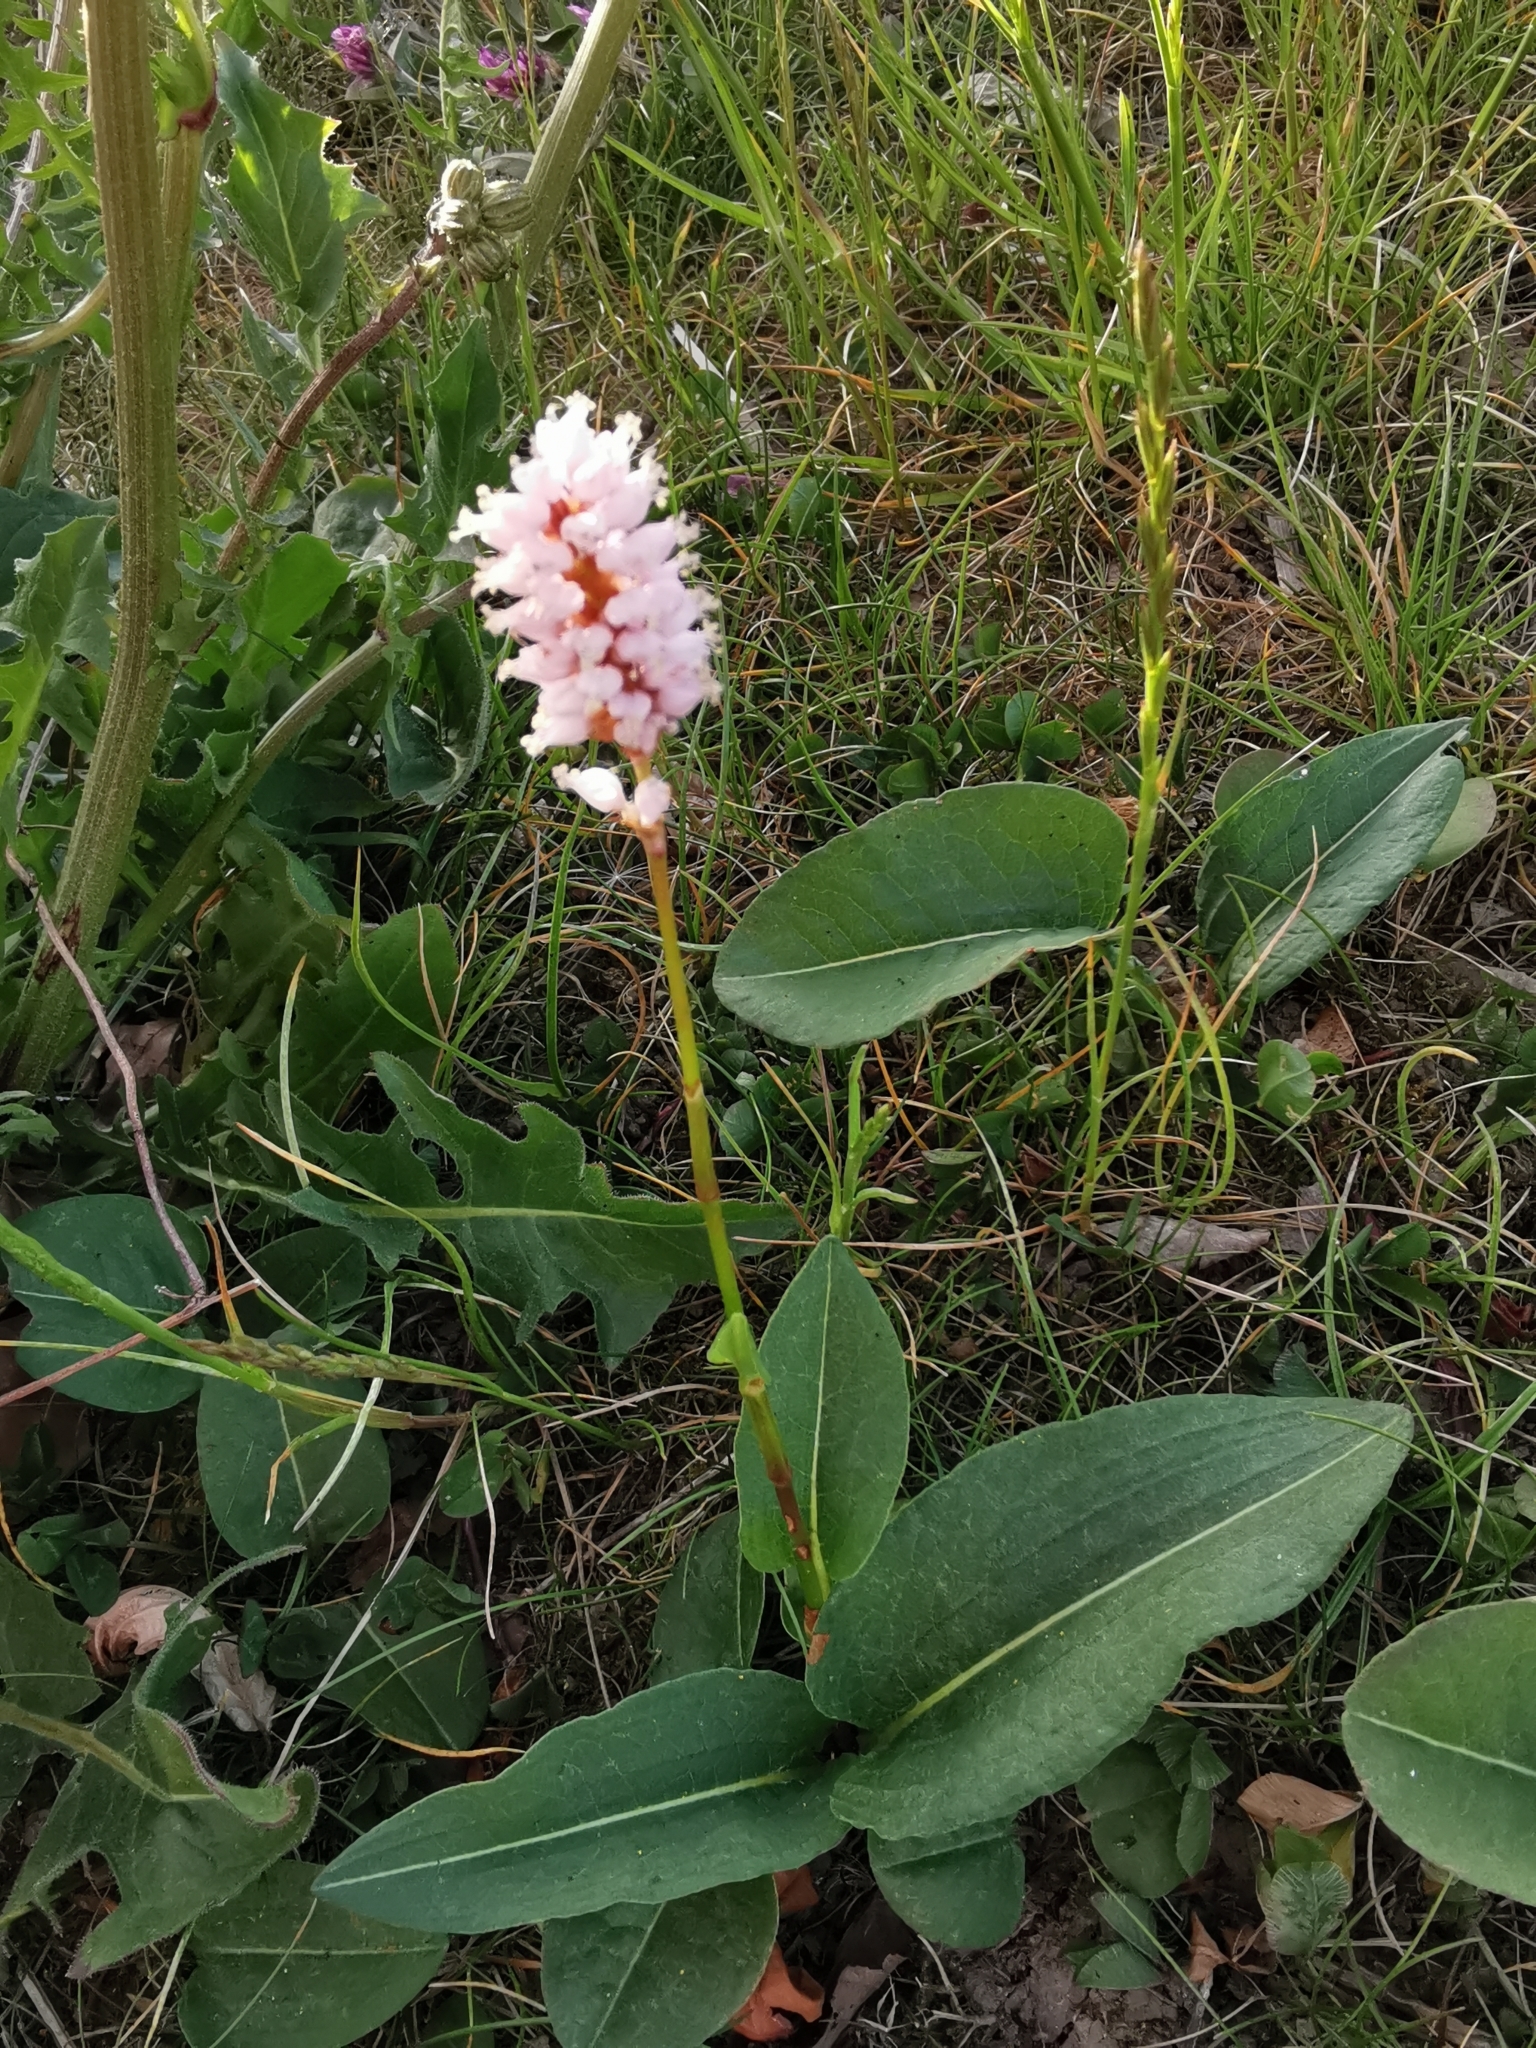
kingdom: Plantae
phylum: Tracheophyta
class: Magnoliopsida
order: Caryophyllales
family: Polygonaceae
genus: Bistorta
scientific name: Bistorta officinalis
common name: Common bistort
